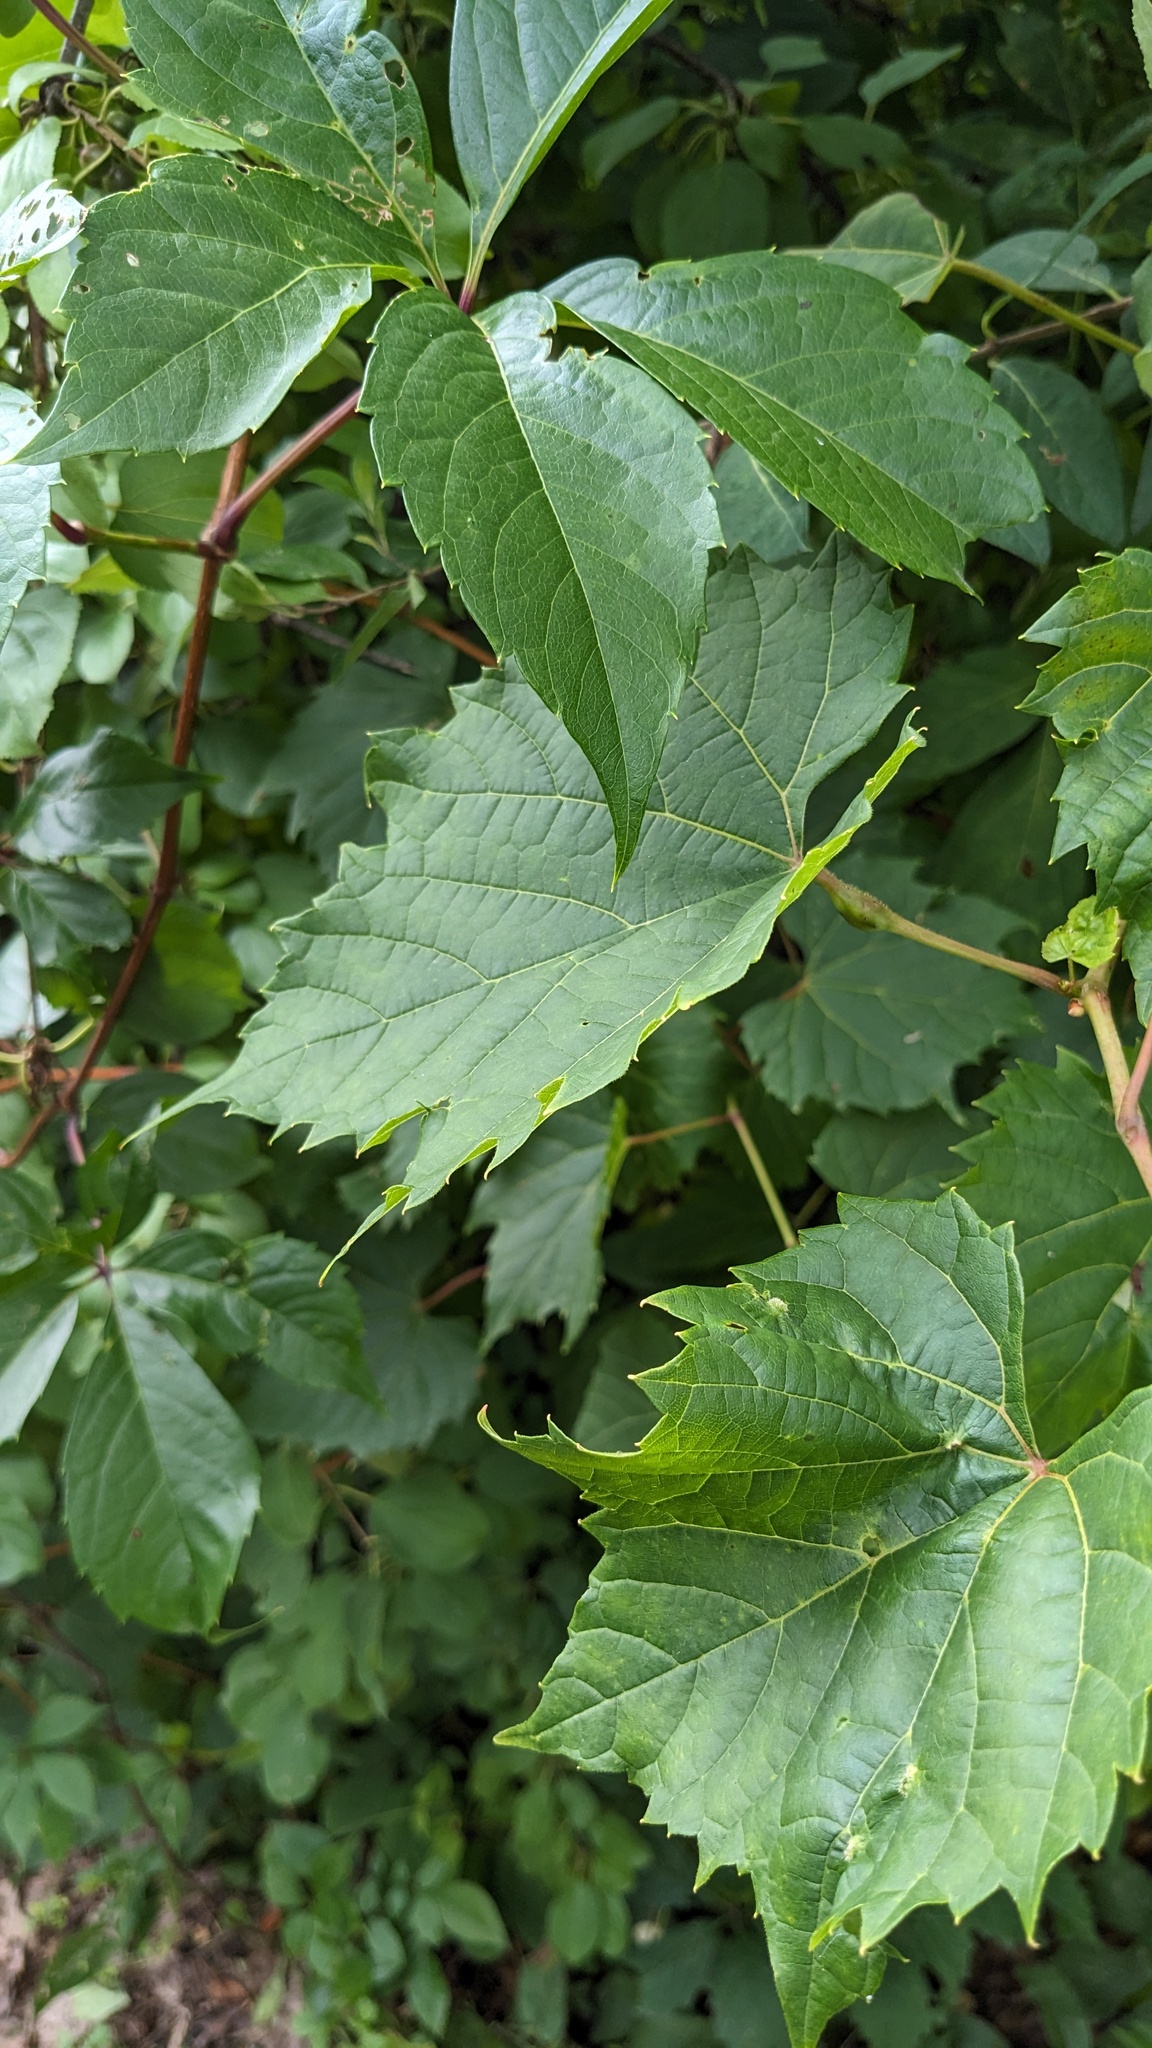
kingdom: Plantae
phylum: Tracheophyta
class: Magnoliopsida
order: Vitales
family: Vitaceae
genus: Vitis
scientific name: Vitis riparia
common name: Frost grape
